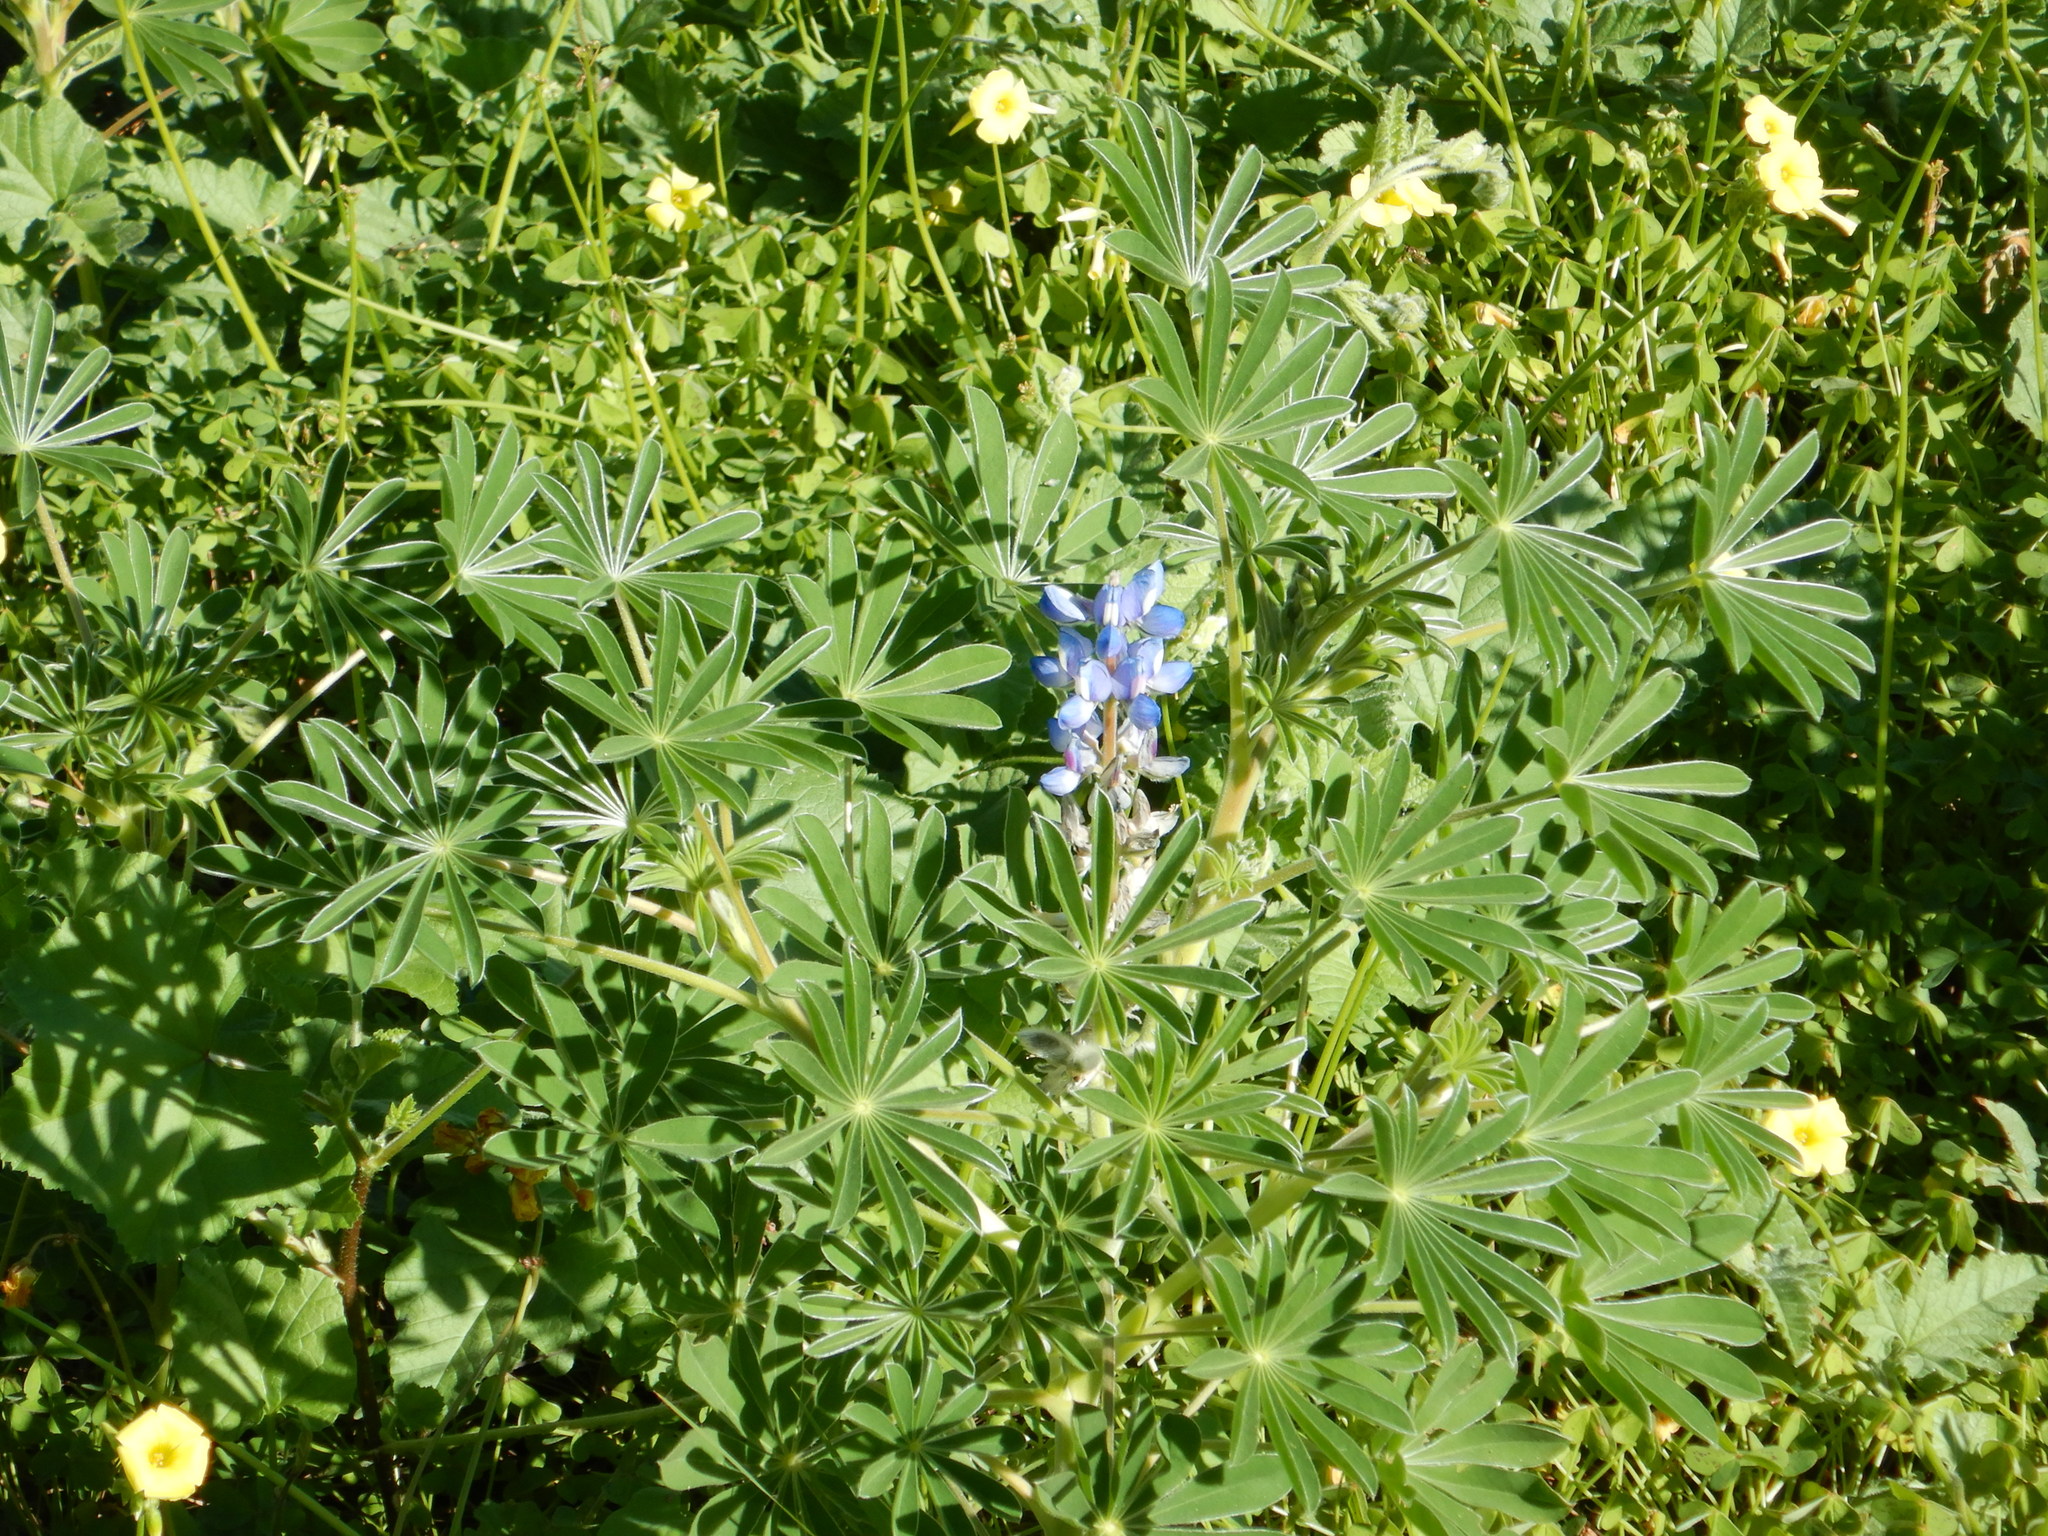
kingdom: Plantae
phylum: Tracheophyta
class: Magnoliopsida
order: Fabales
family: Fabaceae
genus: Lupinus
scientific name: Lupinus cosentinii
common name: Hairy blue lupin
